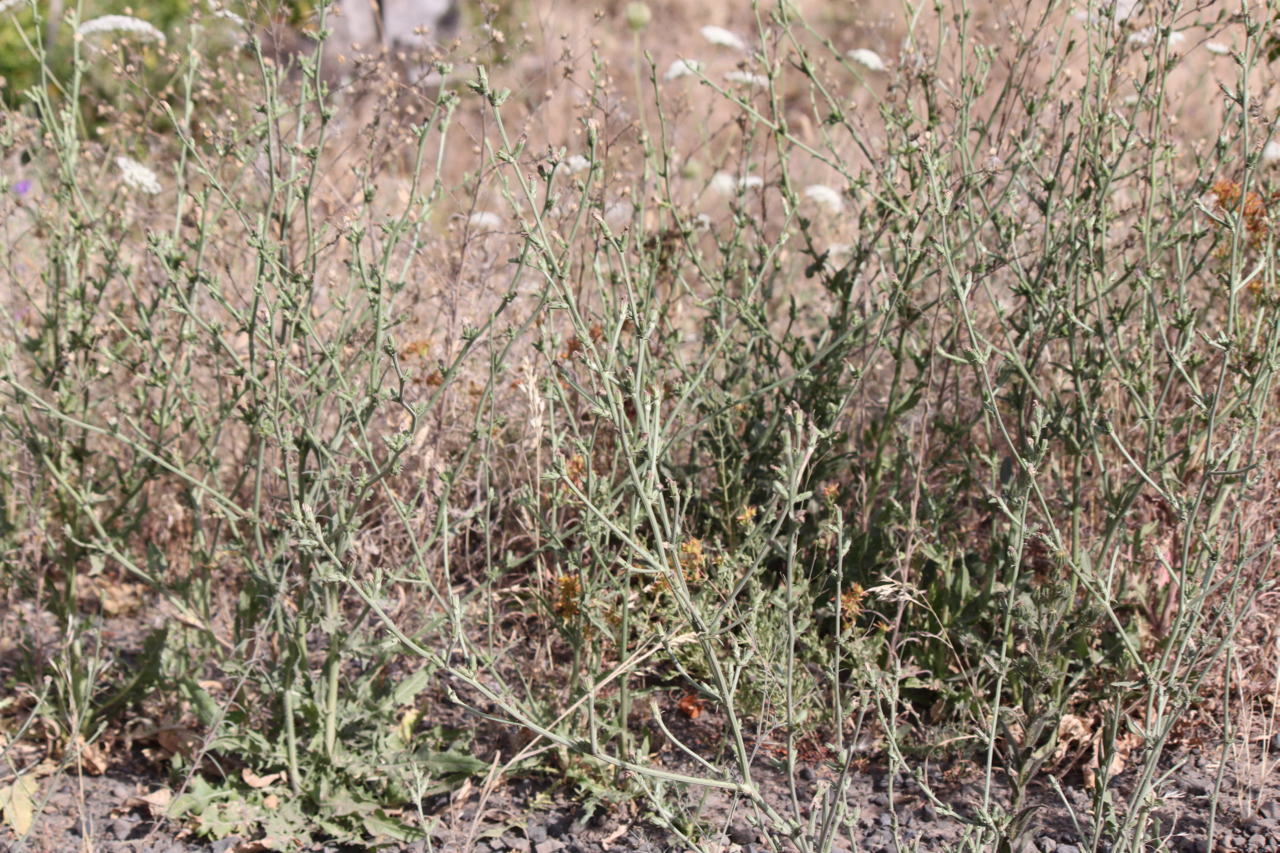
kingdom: Plantae
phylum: Tracheophyta
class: Magnoliopsida
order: Asterales
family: Asteraceae
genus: Cichorium
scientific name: Cichorium intybus
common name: Chicory
